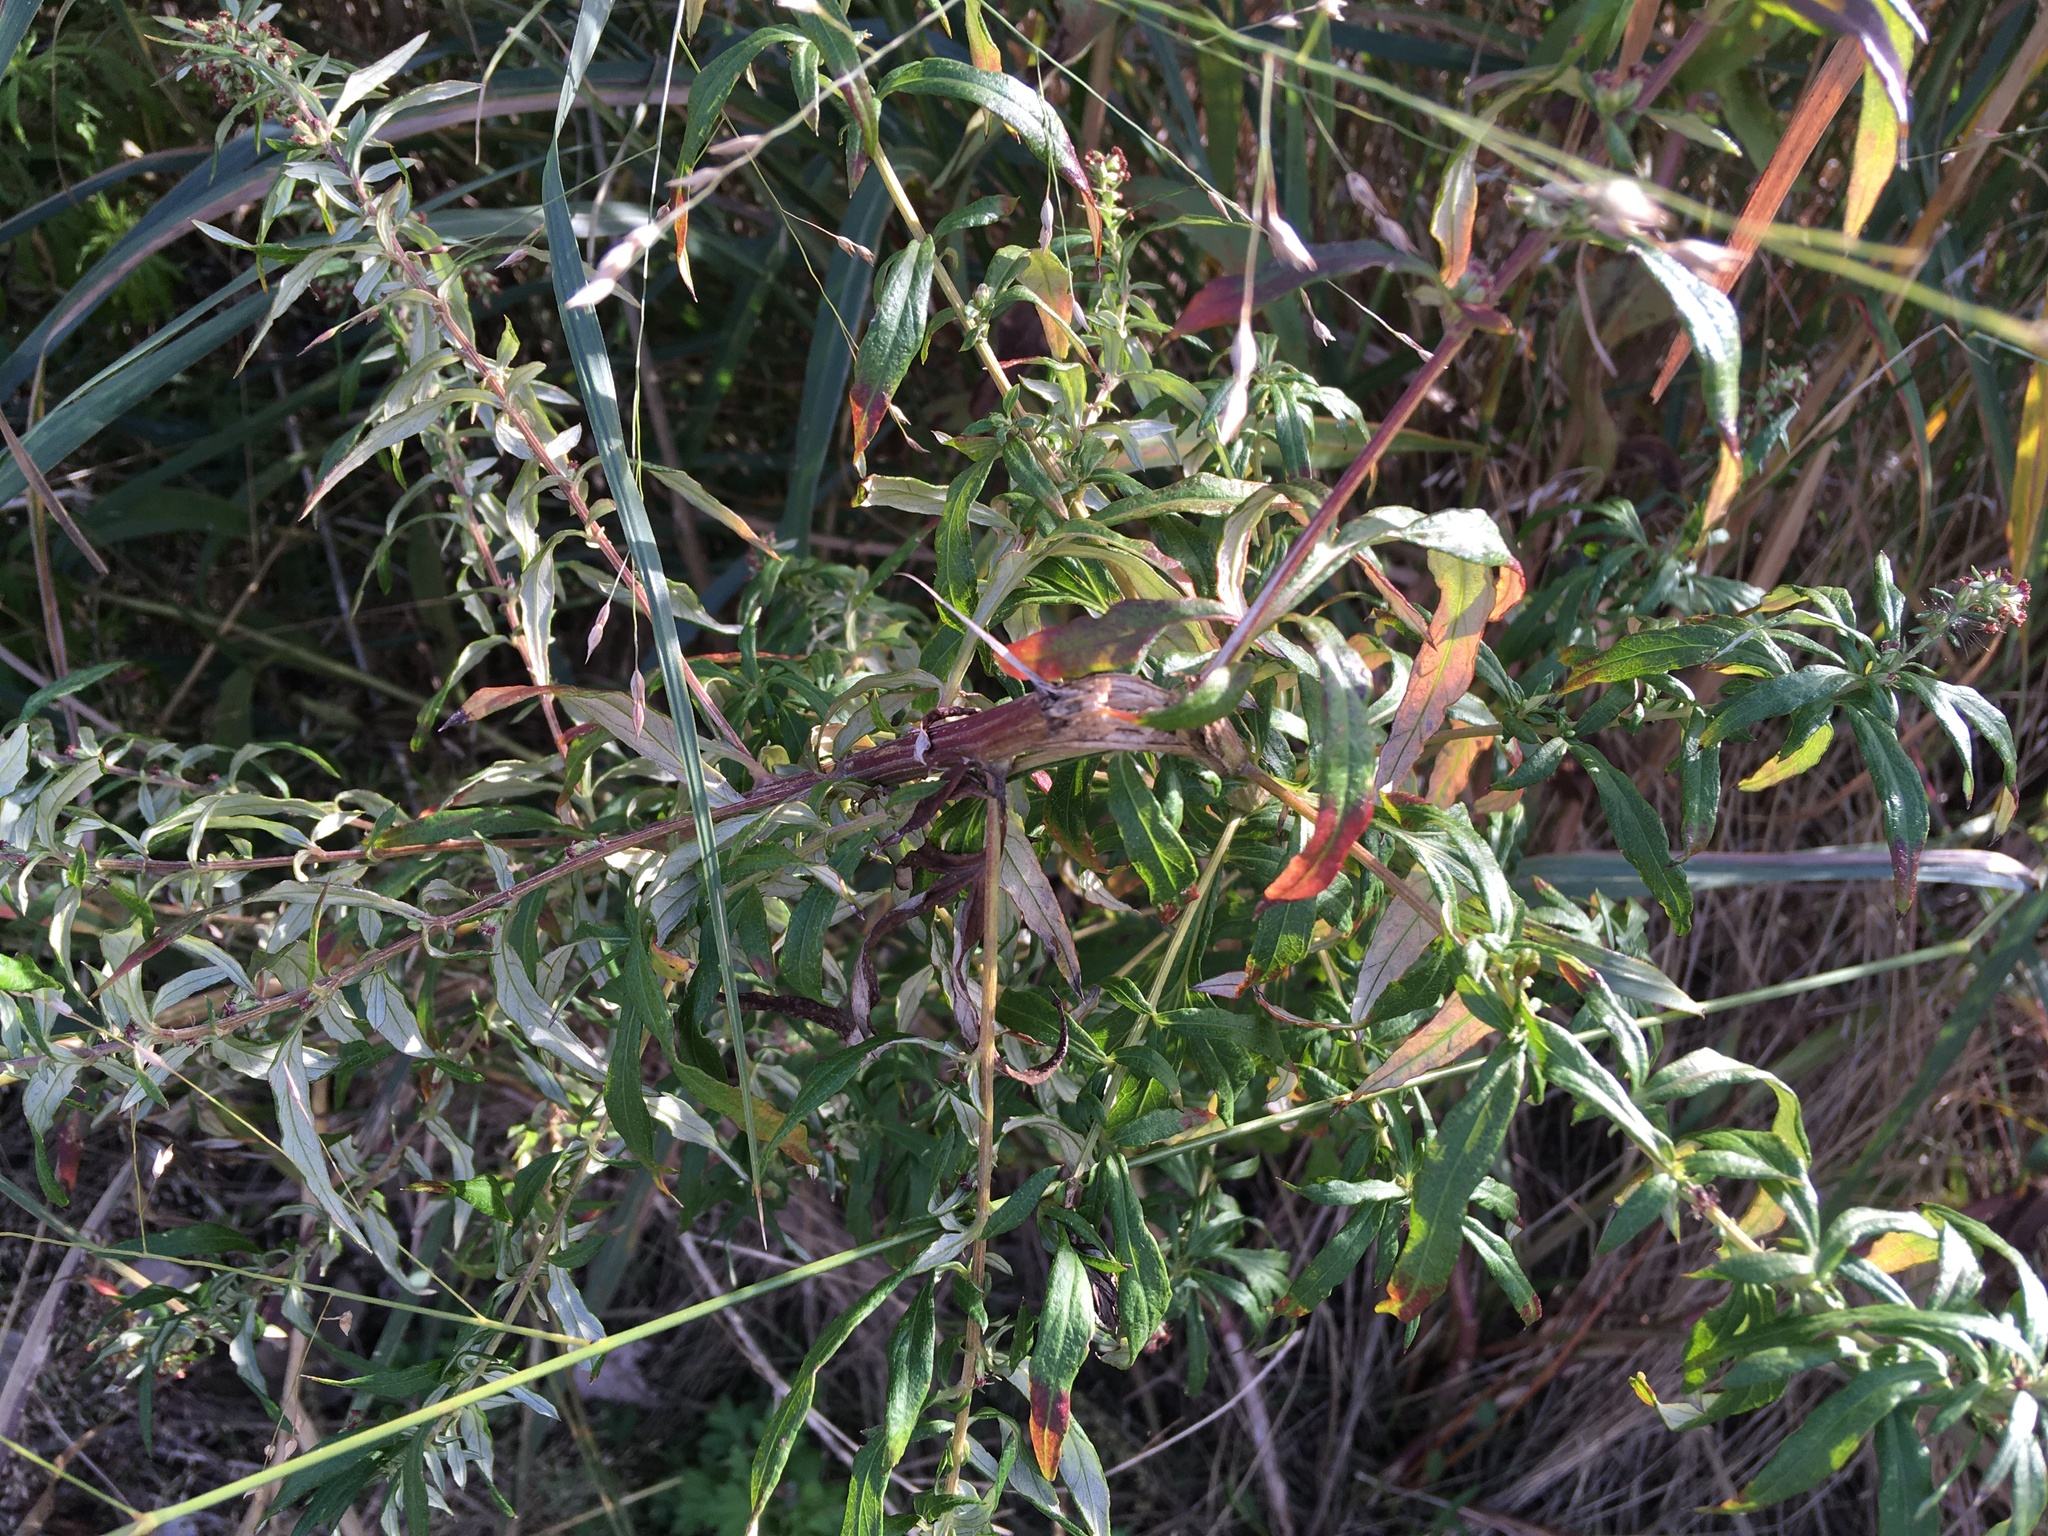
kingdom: Plantae
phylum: Tracheophyta
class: Magnoliopsida
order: Asterales
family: Asteraceae
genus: Artemisia
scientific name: Artemisia vulgaris
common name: Mugwort
